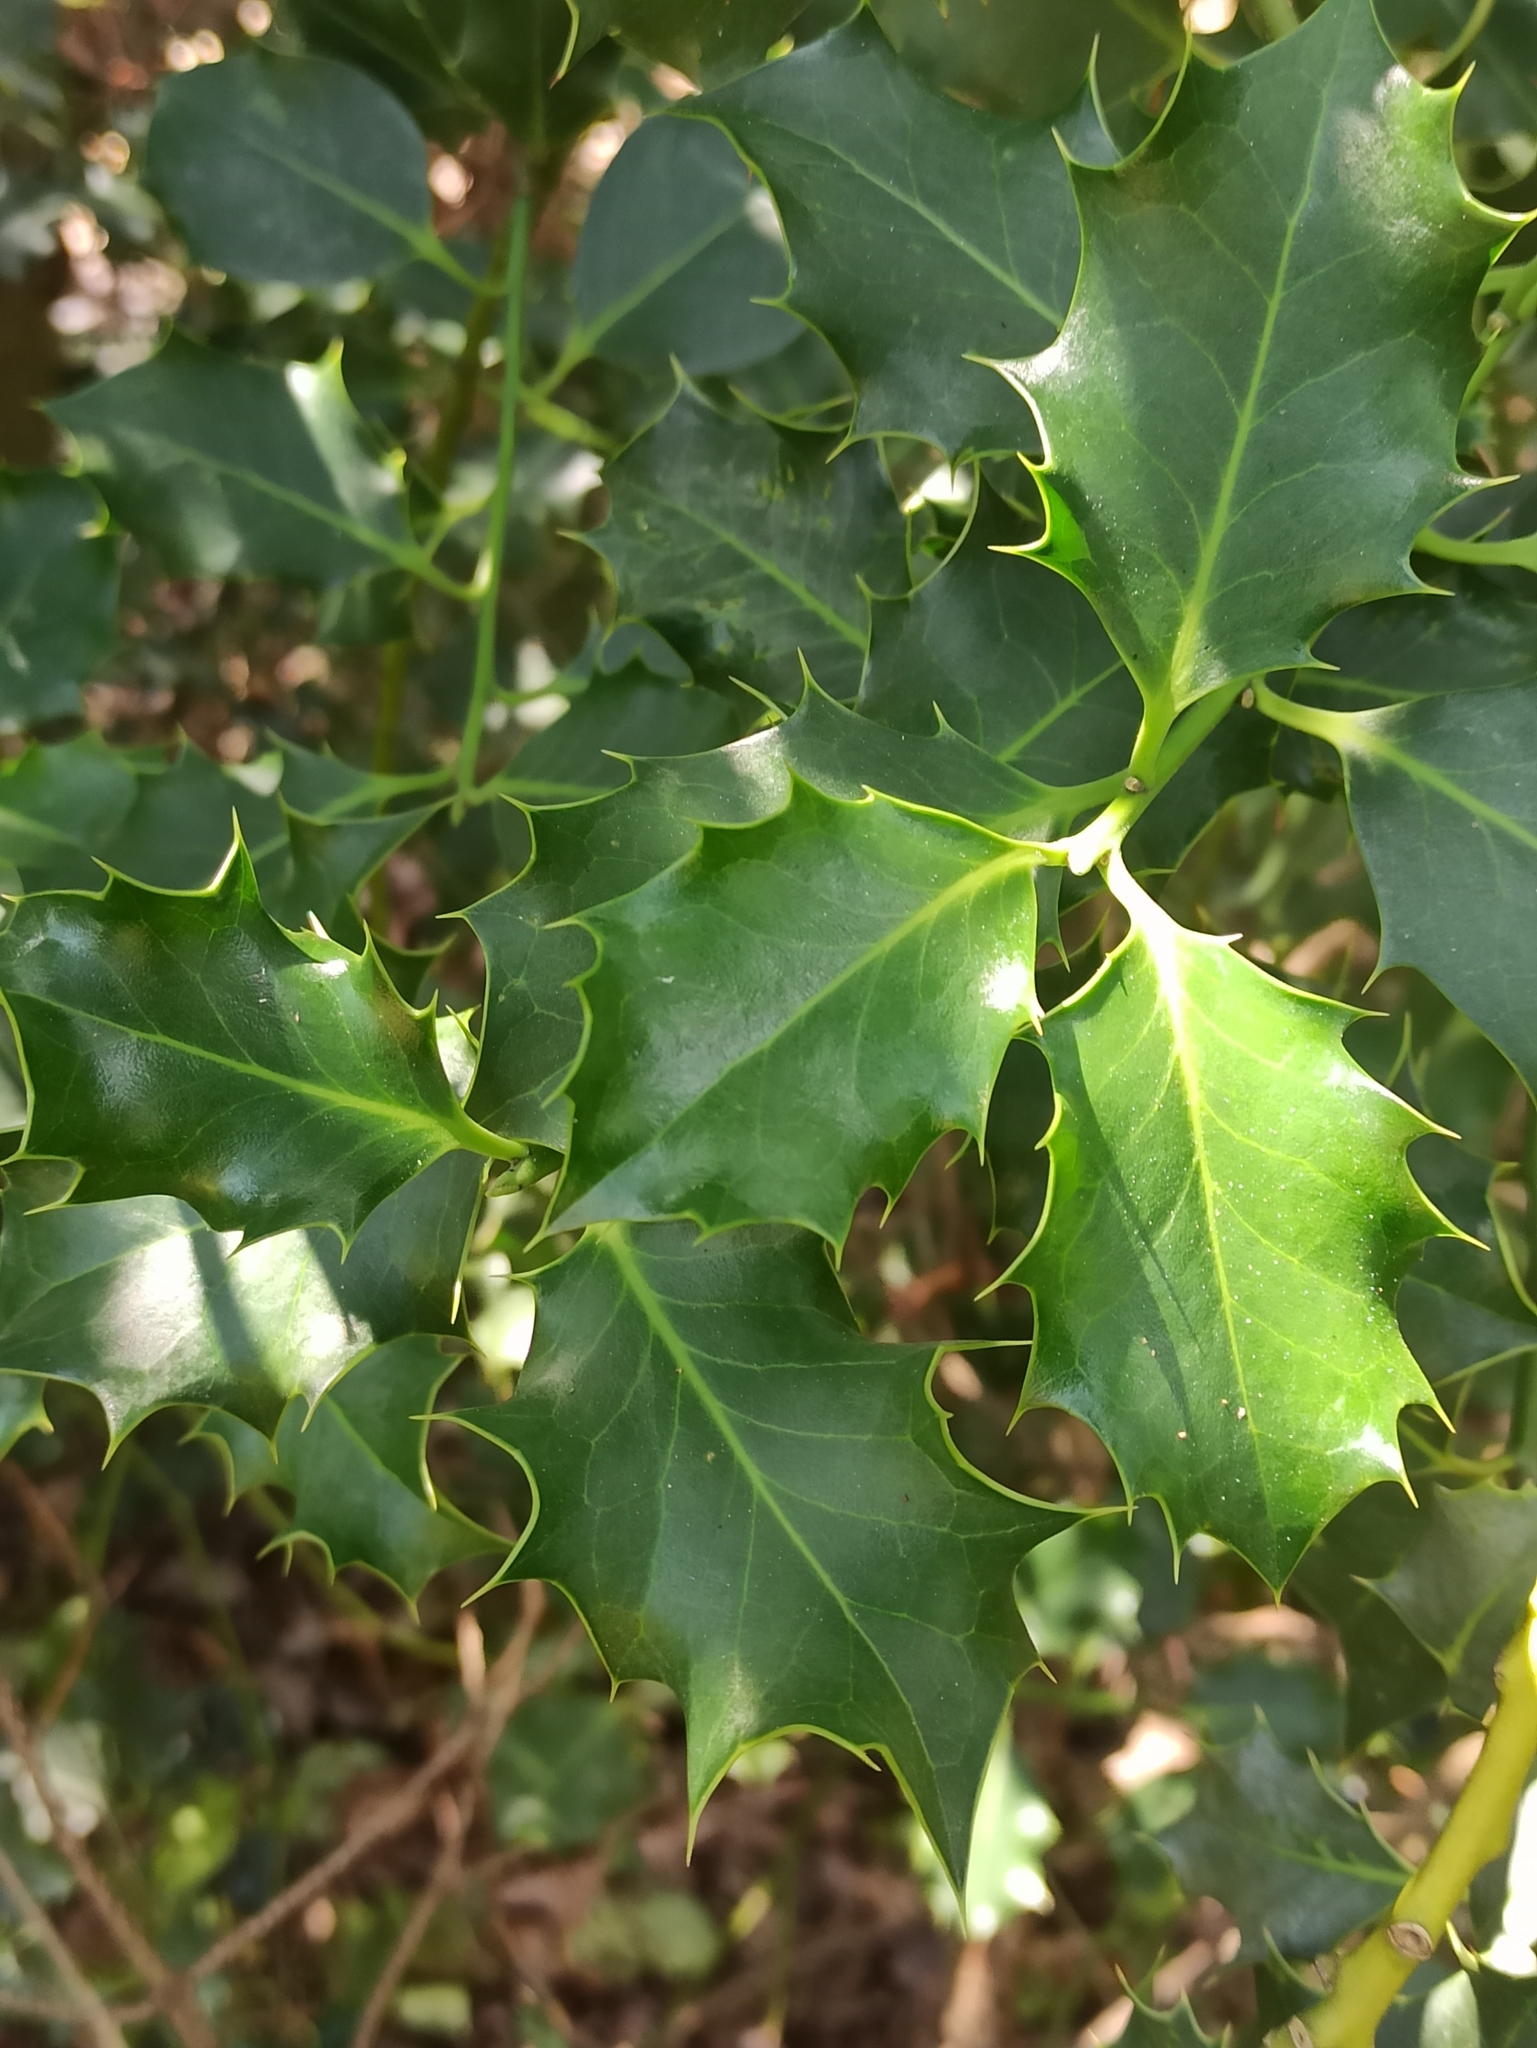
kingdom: Plantae
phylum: Tracheophyta
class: Magnoliopsida
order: Aquifoliales
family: Aquifoliaceae
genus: Ilex
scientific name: Ilex aquifolium
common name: English holly
